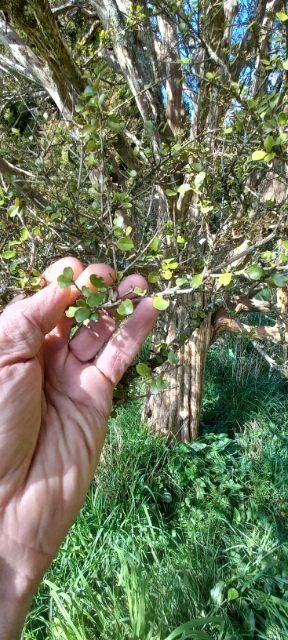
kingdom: Plantae
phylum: Tracheophyta
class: Magnoliopsida
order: Myrtales
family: Myrtaceae
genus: Lophomyrtus
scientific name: Lophomyrtus obcordata
